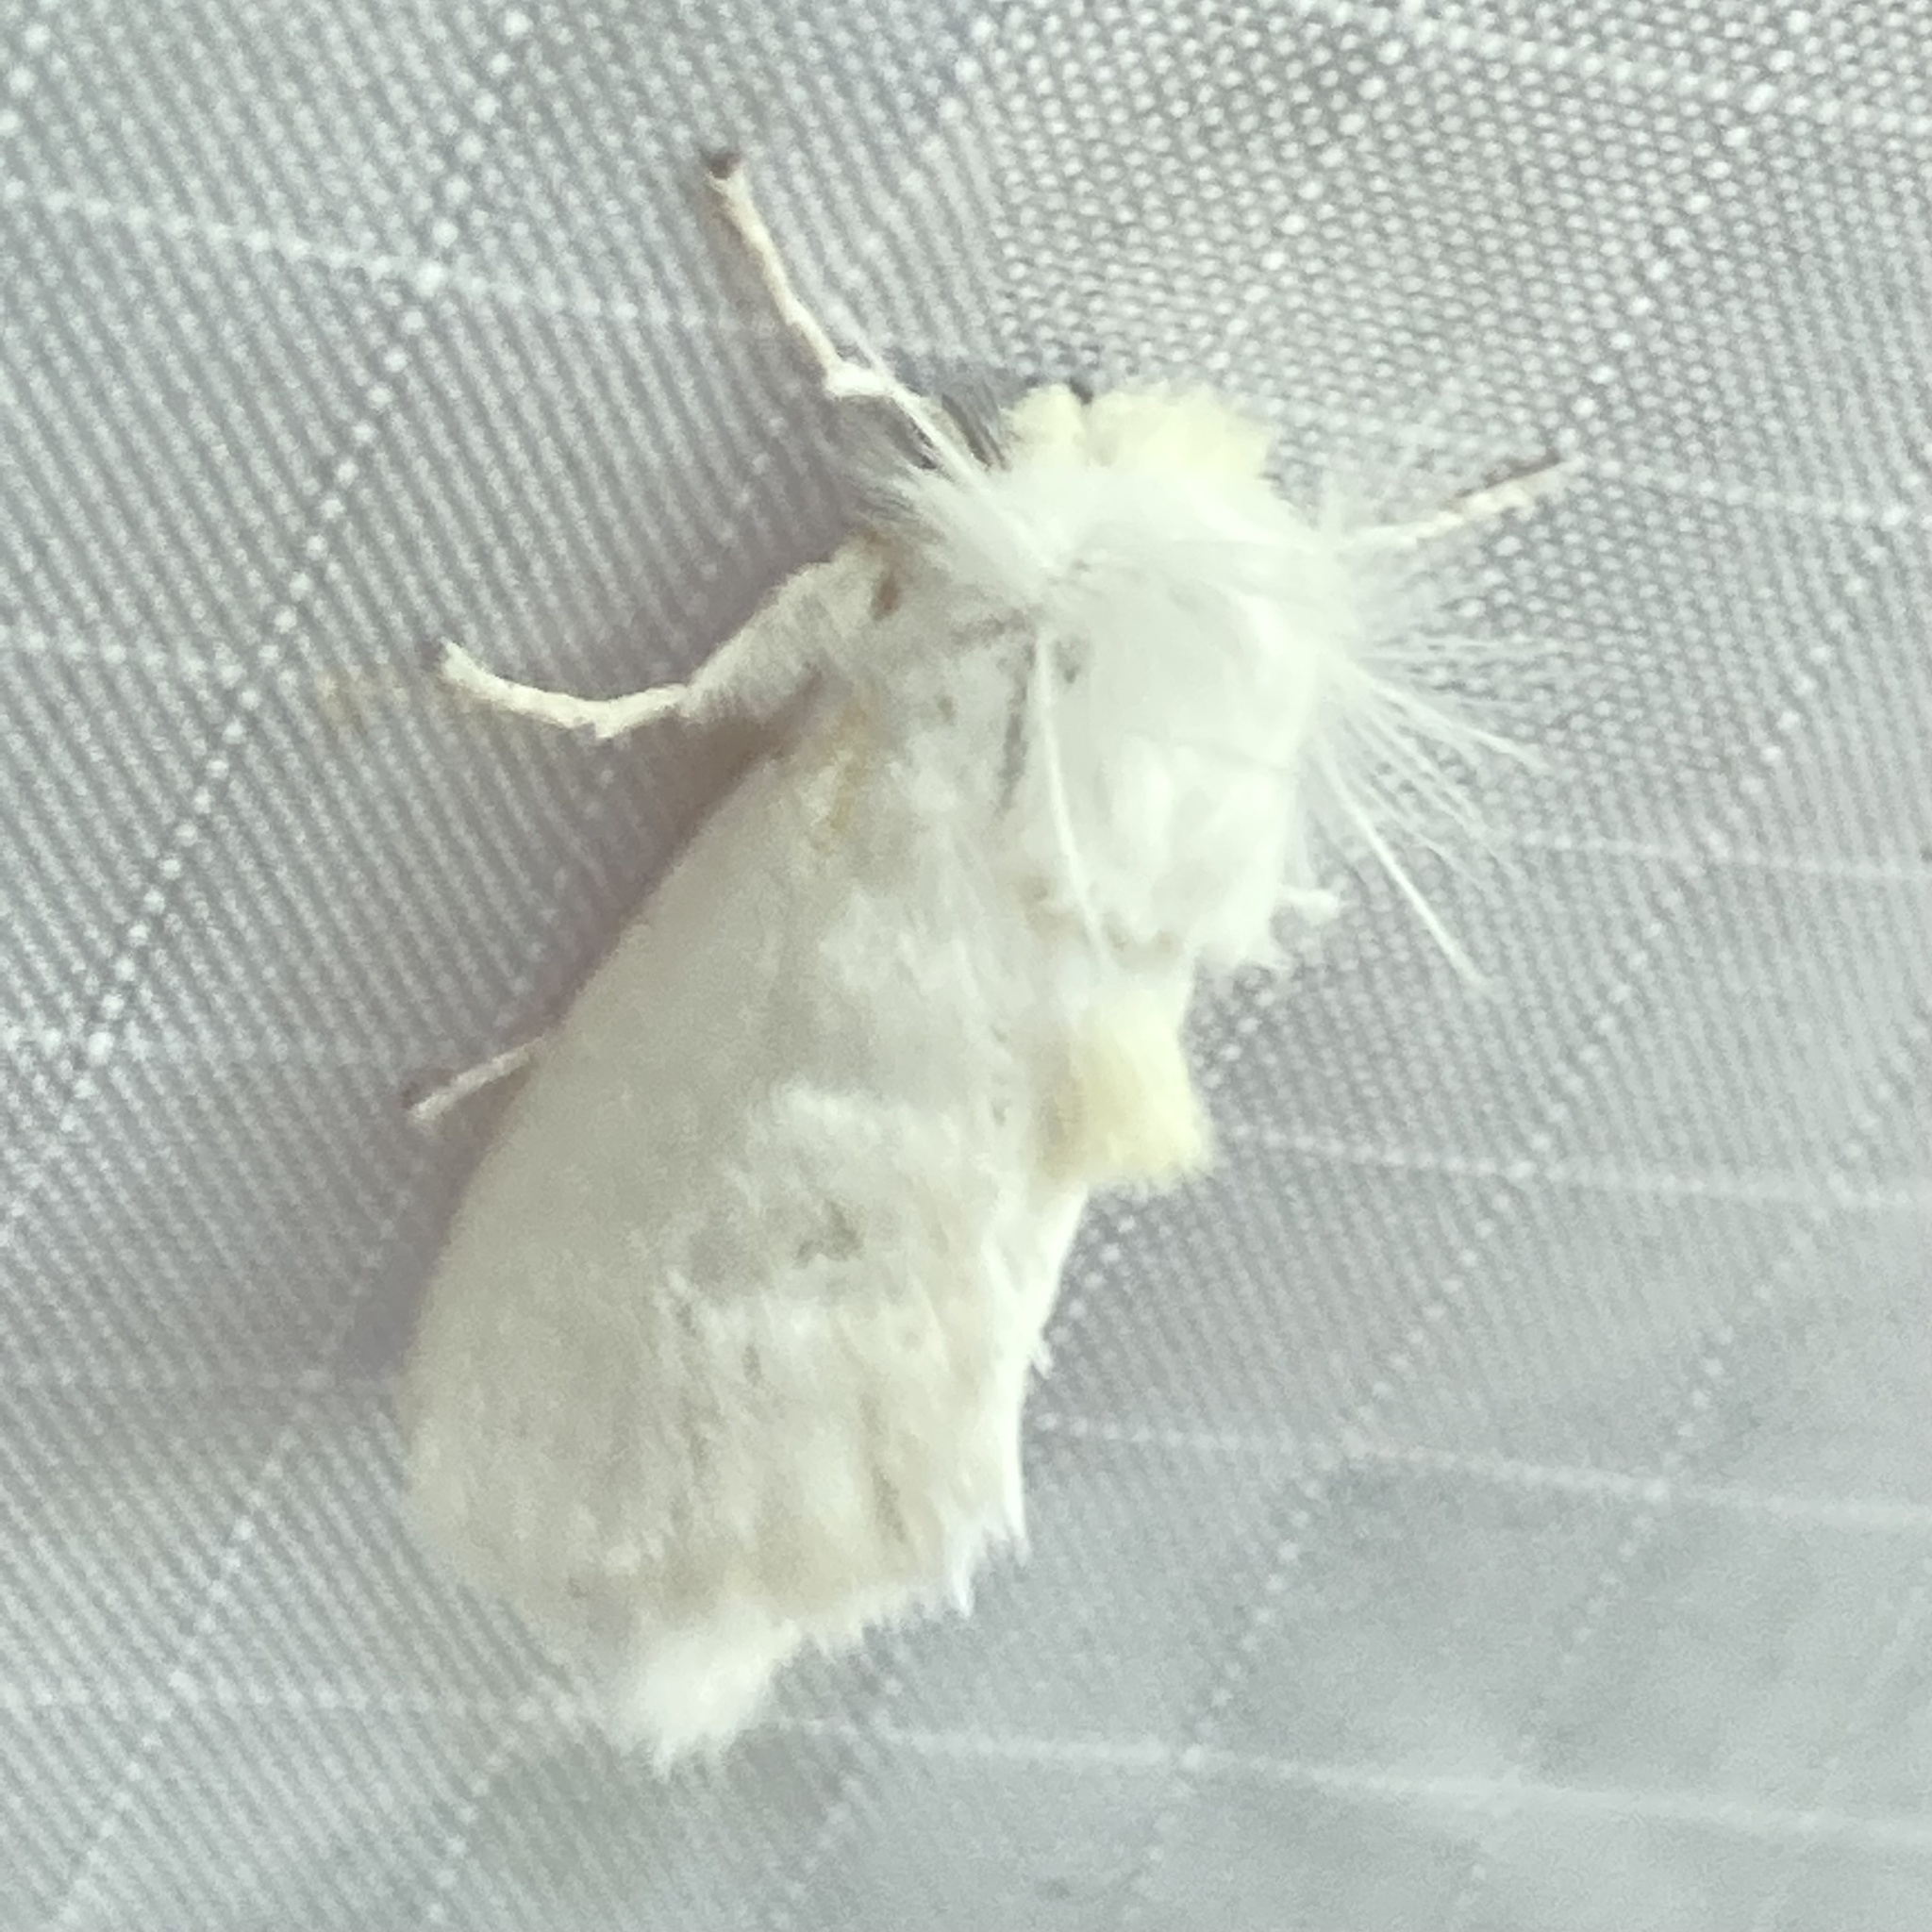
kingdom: Animalia
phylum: Arthropoda
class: Insecta
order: Lepidoptera
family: Megalopygidae
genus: Norape
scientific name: Norape cretata
